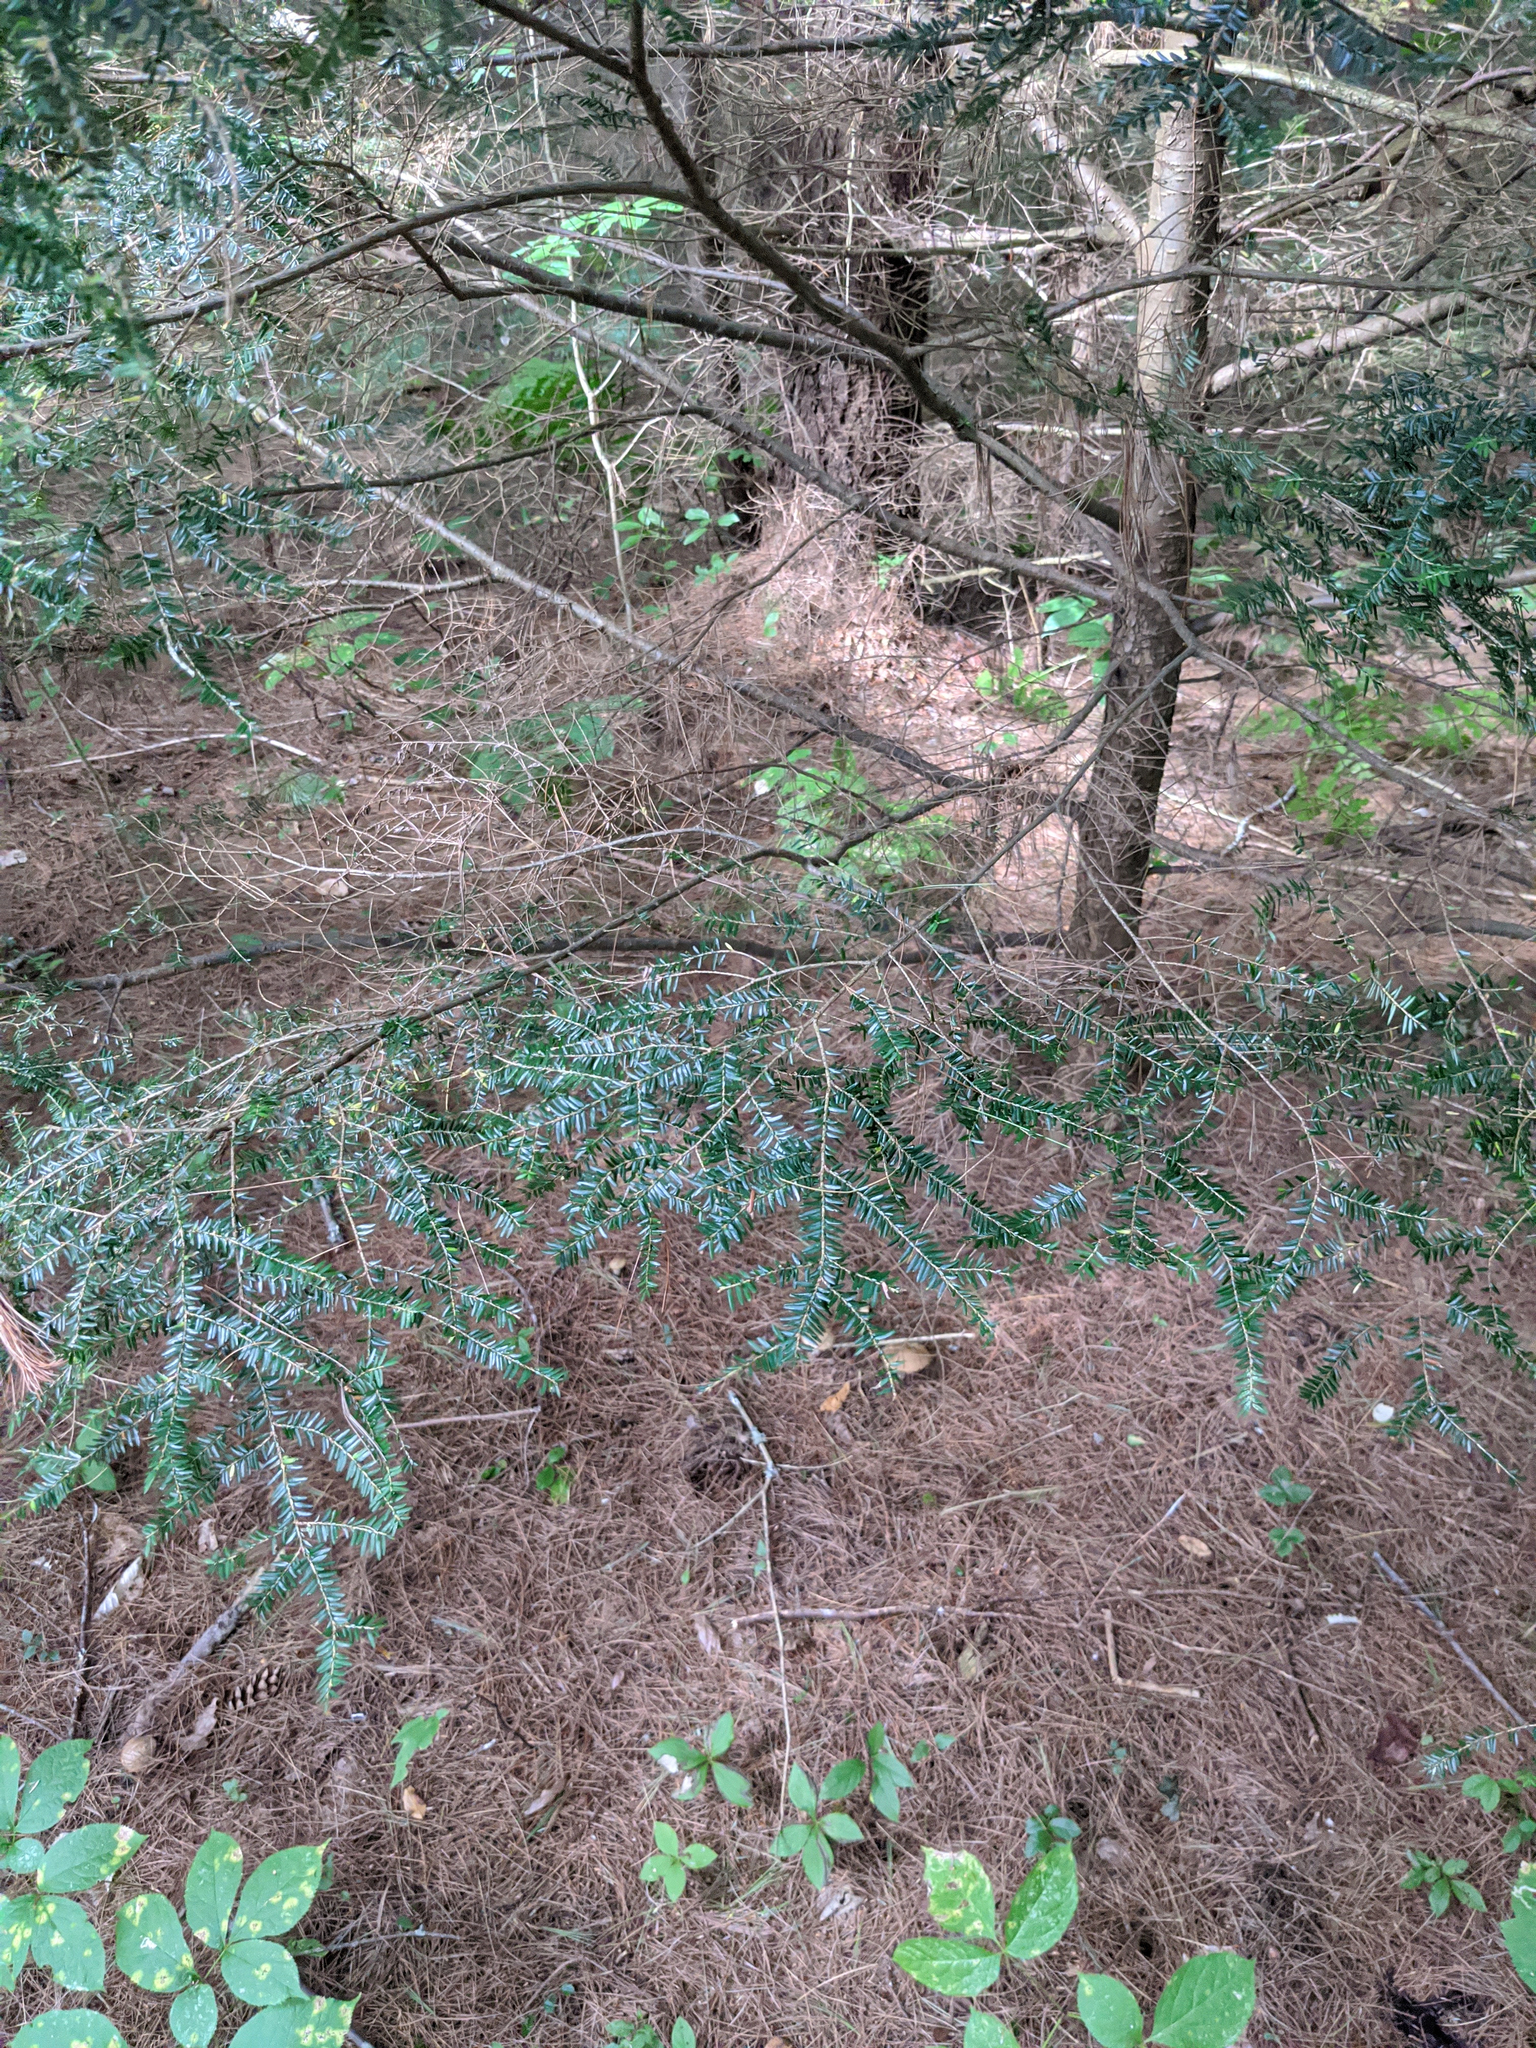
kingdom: Plantae
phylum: Tracheophyta
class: Pinopsida
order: Pinales
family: Pinaceae
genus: Tsuga
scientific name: Tsuga canadensis
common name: Eastern hemlock
